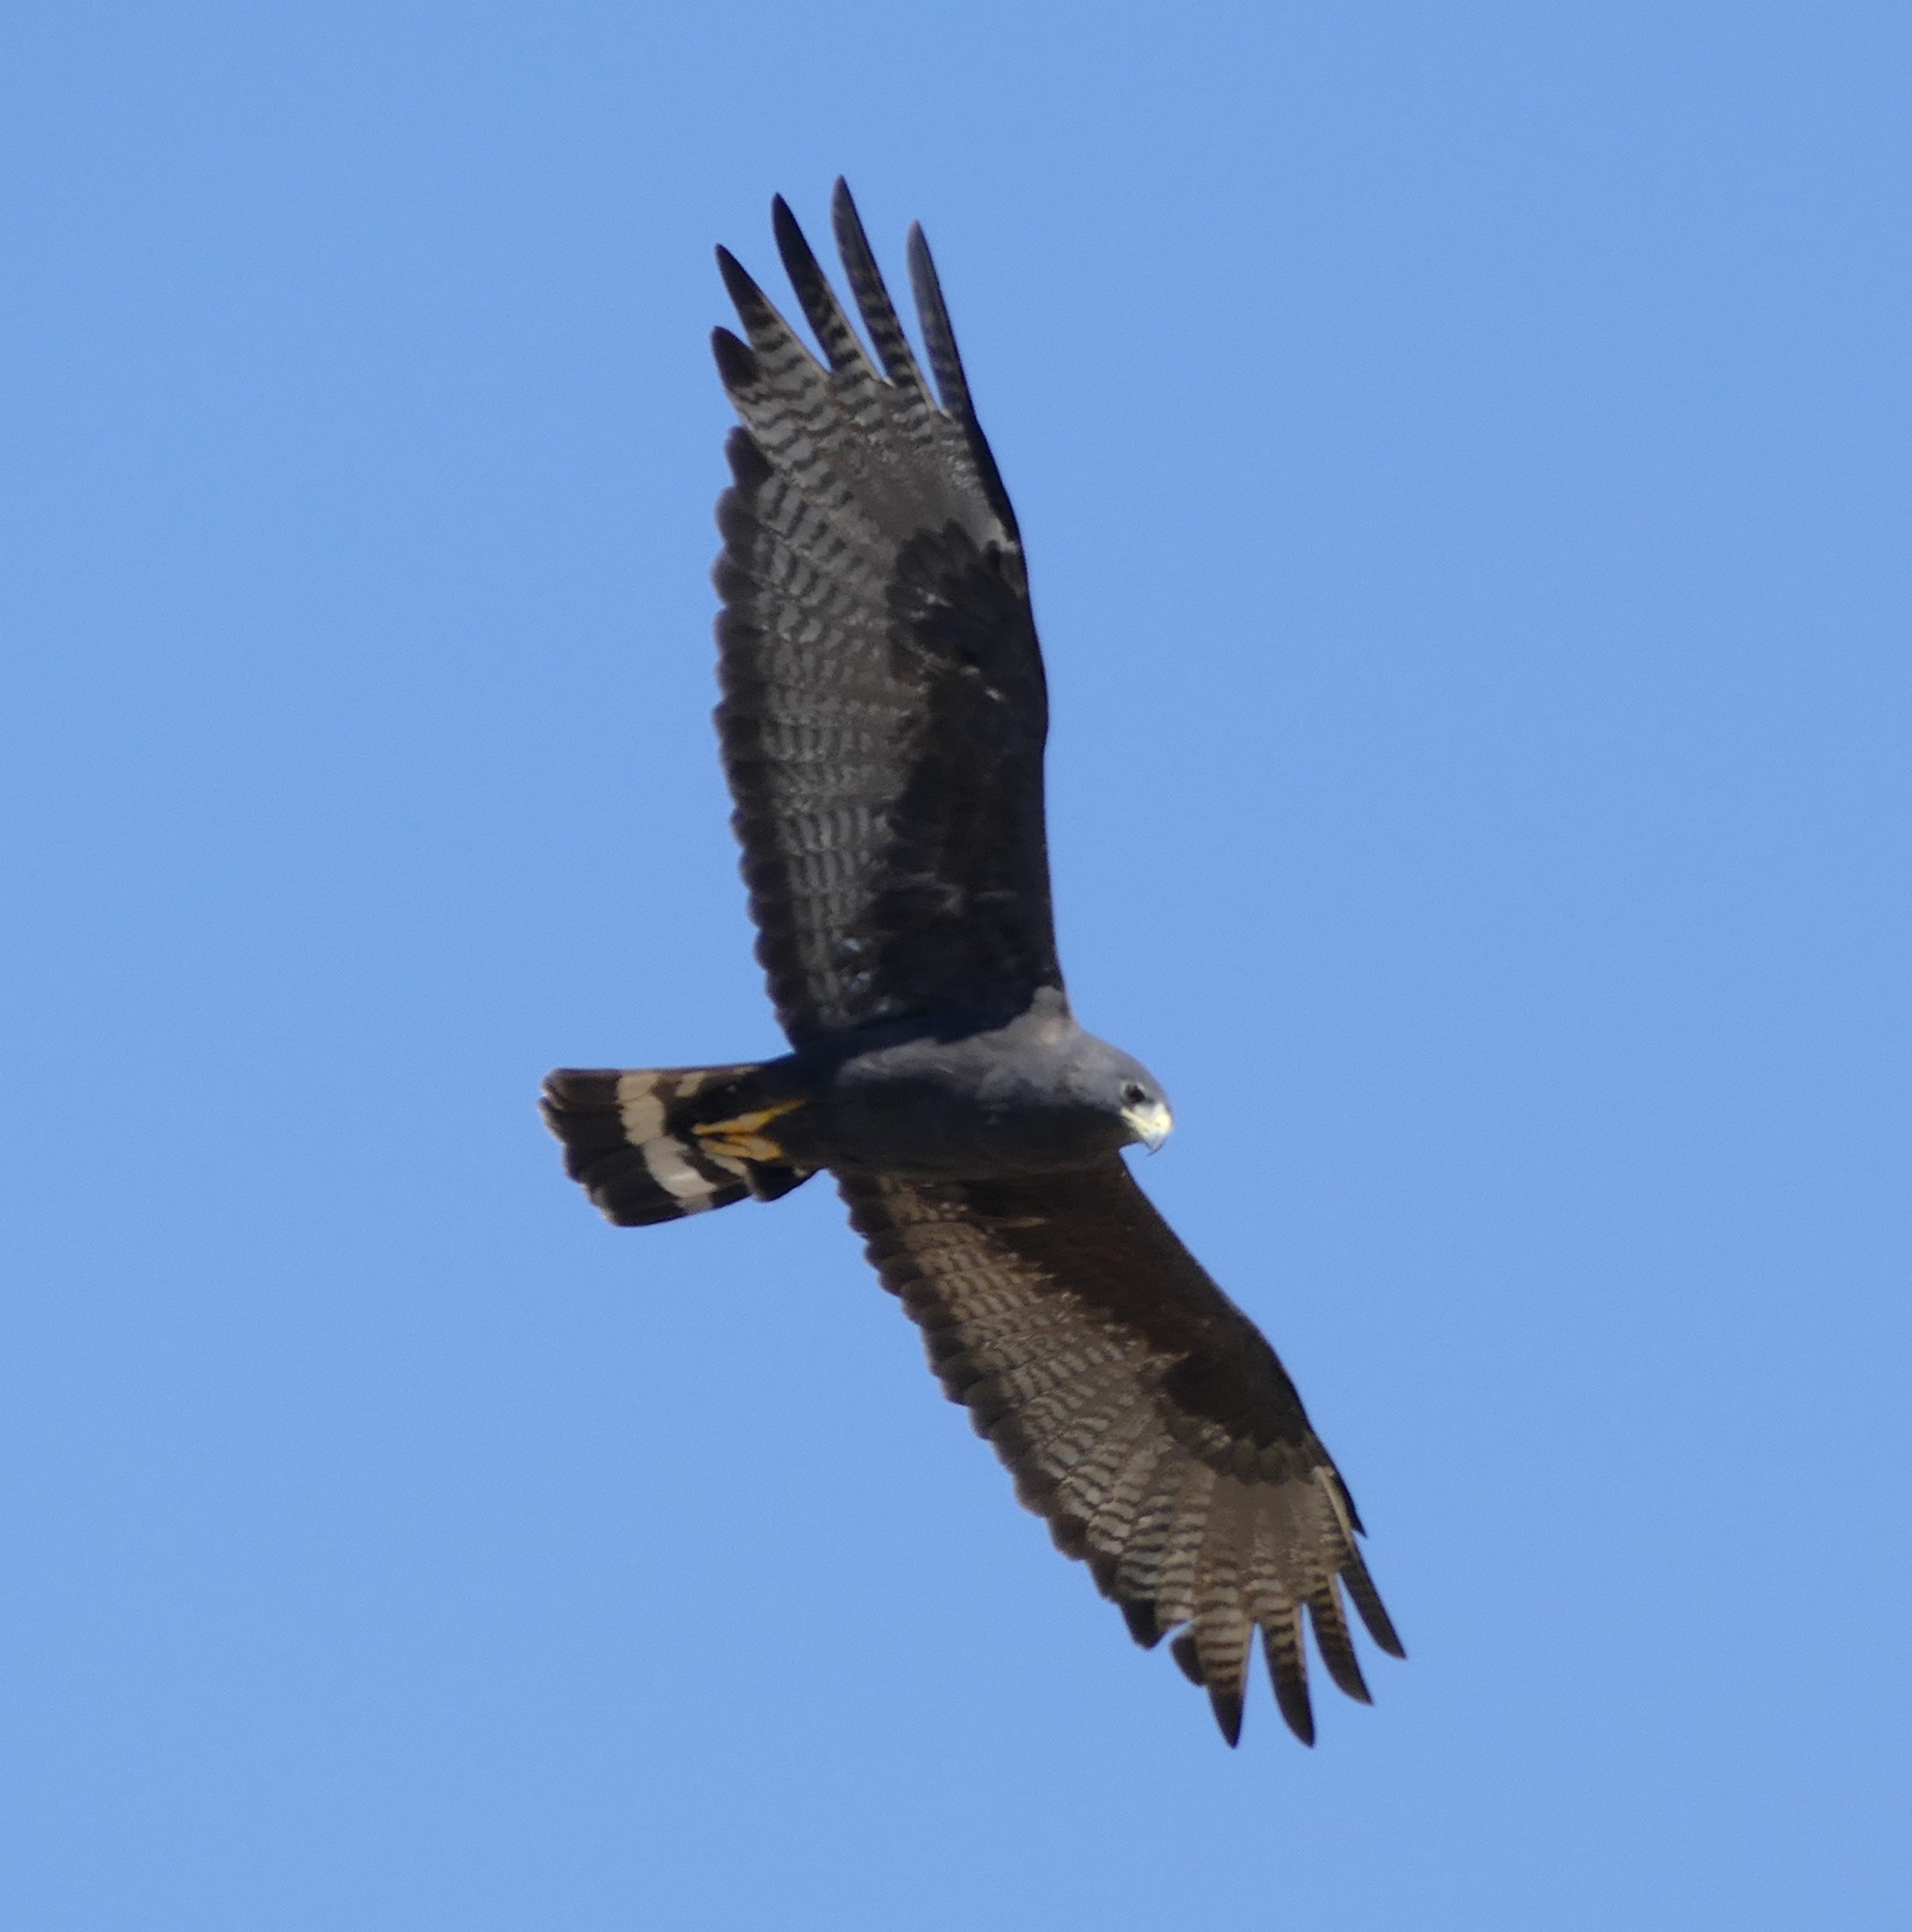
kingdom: Animalia
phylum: Chordata
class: Aves
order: Accipitriformes
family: Accipitridae
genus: Buteo
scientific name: Buteo albonotatus
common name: Zone-tailed hawk
